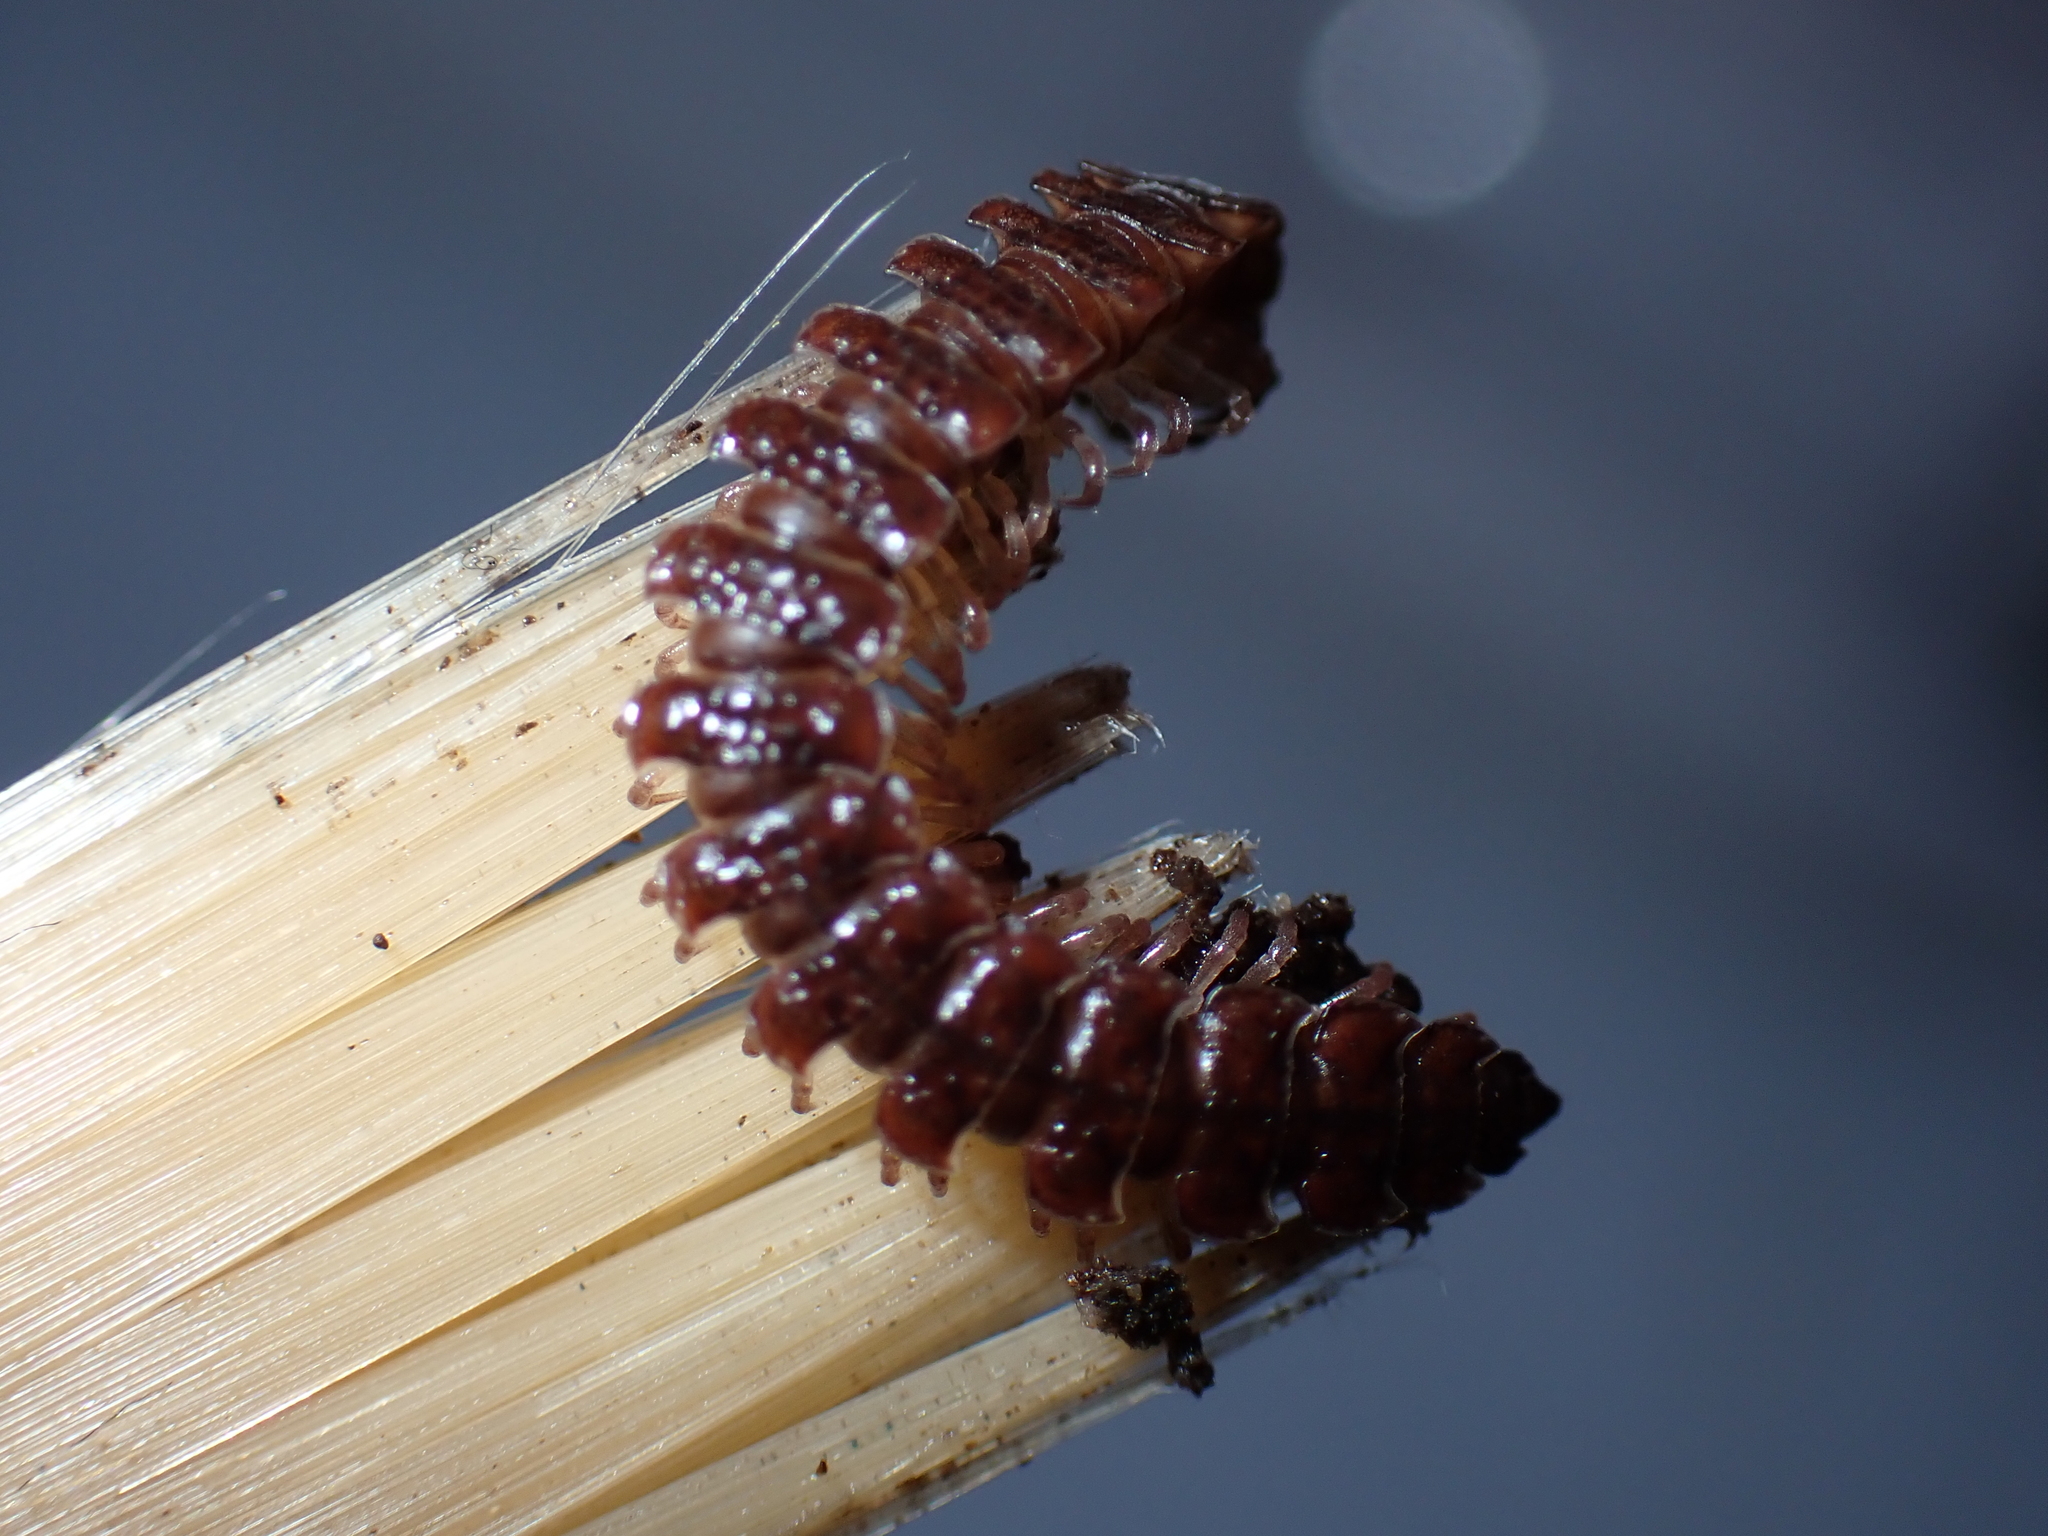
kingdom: Animalia
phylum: Arthropoda
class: Diplopoda
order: Polydesmida
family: Polydesmidae
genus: Polydesmus
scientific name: Polydesmus
